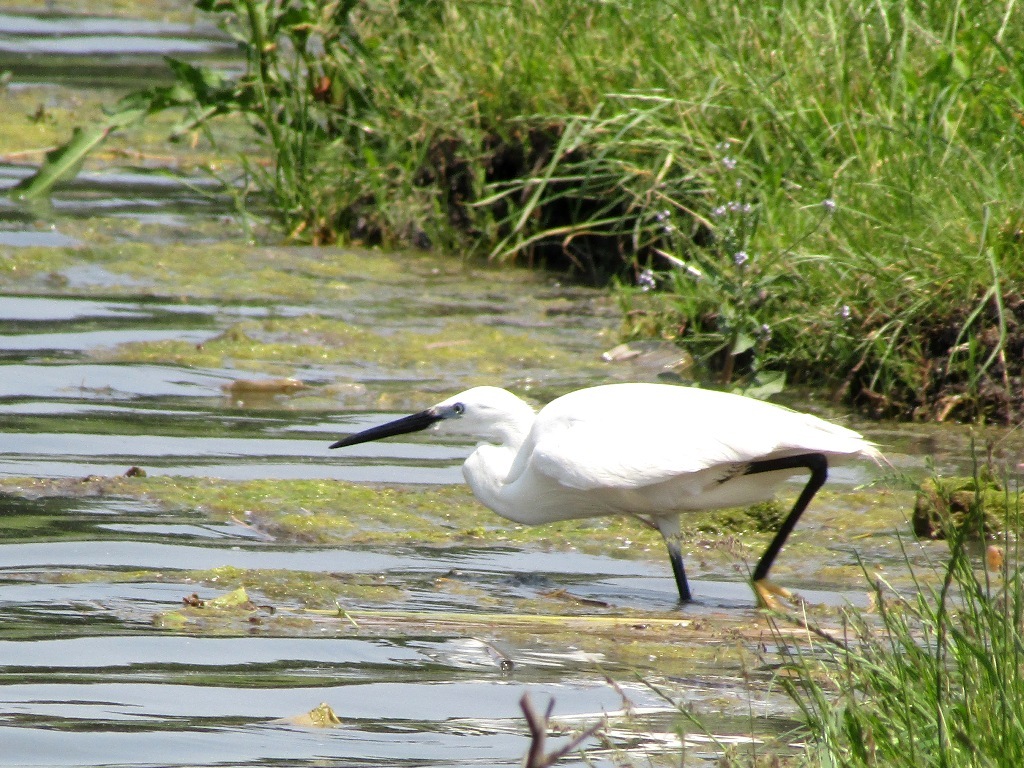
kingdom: Animalia
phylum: Chordata
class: Aves
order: Pelecaniformes
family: Ardeidae
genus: Egretta
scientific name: Egretta garzetta
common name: Little egret
